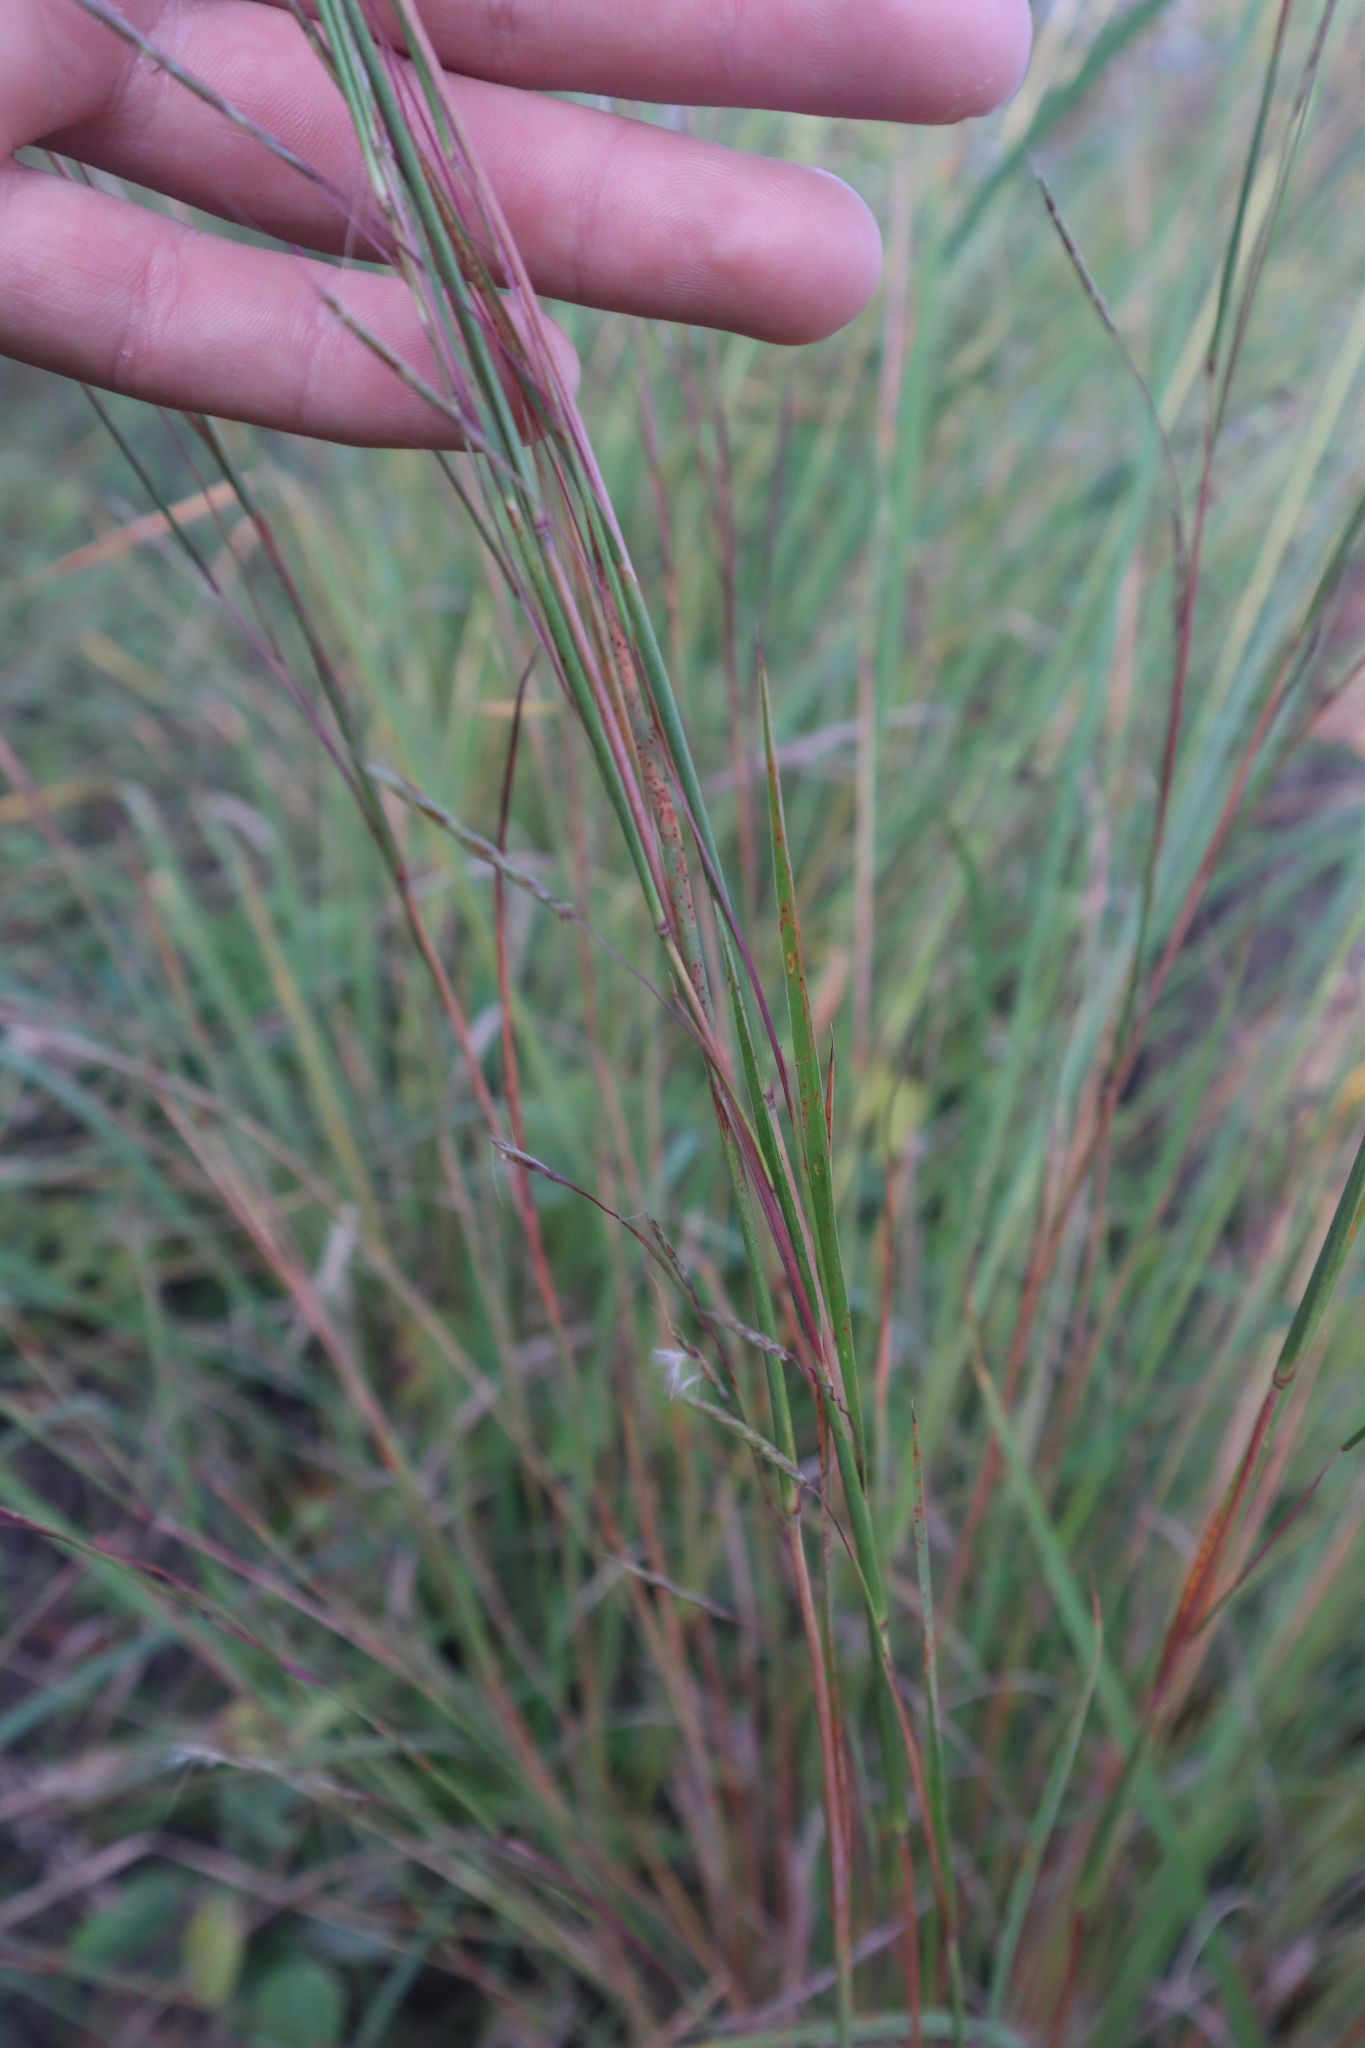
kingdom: Plantae
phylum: Tracheophyta
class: Liliopsida
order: Poales
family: Poaceae
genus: Schizachyrium
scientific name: Schizachyrium scoparium
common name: Little bluestem
